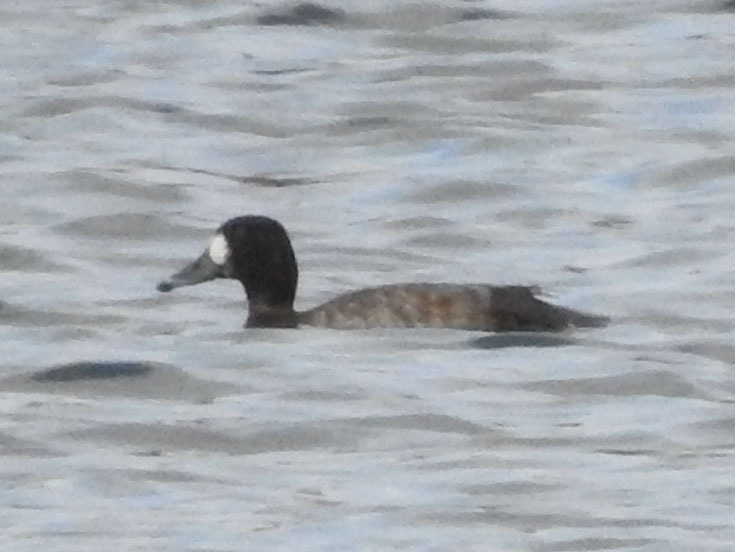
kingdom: Animalia
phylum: Chordata
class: Aves
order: Anseriformes
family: Anatidae
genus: Aythya
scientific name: Aythya marila
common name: Greater scaup
